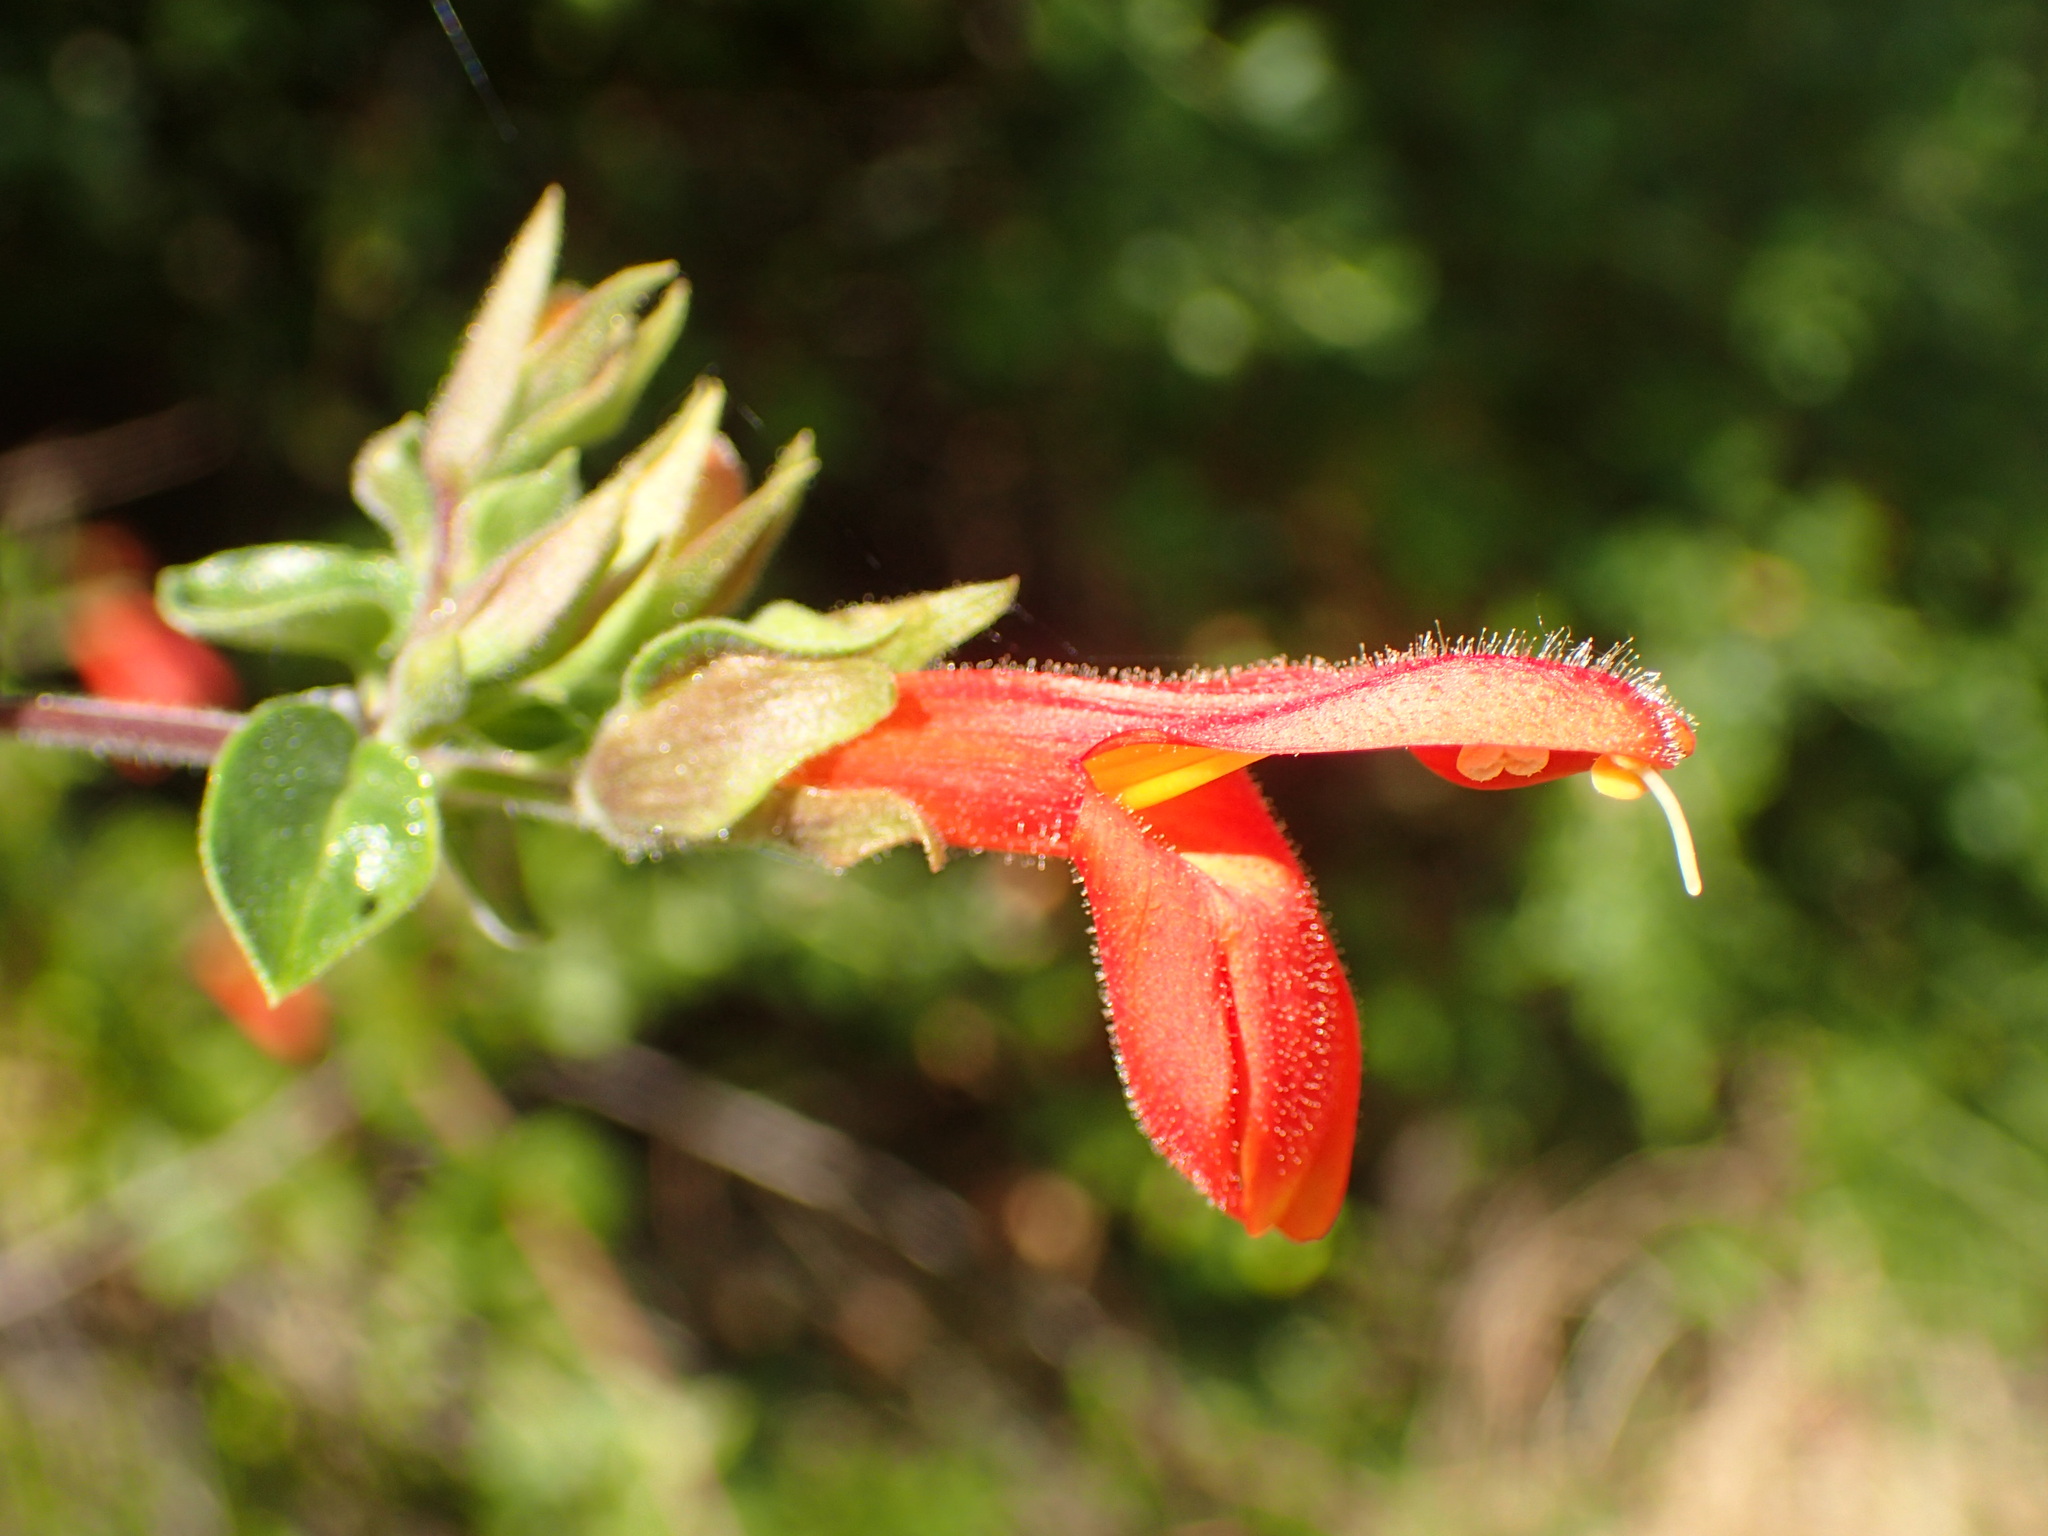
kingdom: Plantae
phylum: Tracheophyta
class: Magnoliopsida
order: Lamiales
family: Plantaginaceae
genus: Keckiella
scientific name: Keckiella cordifolia
